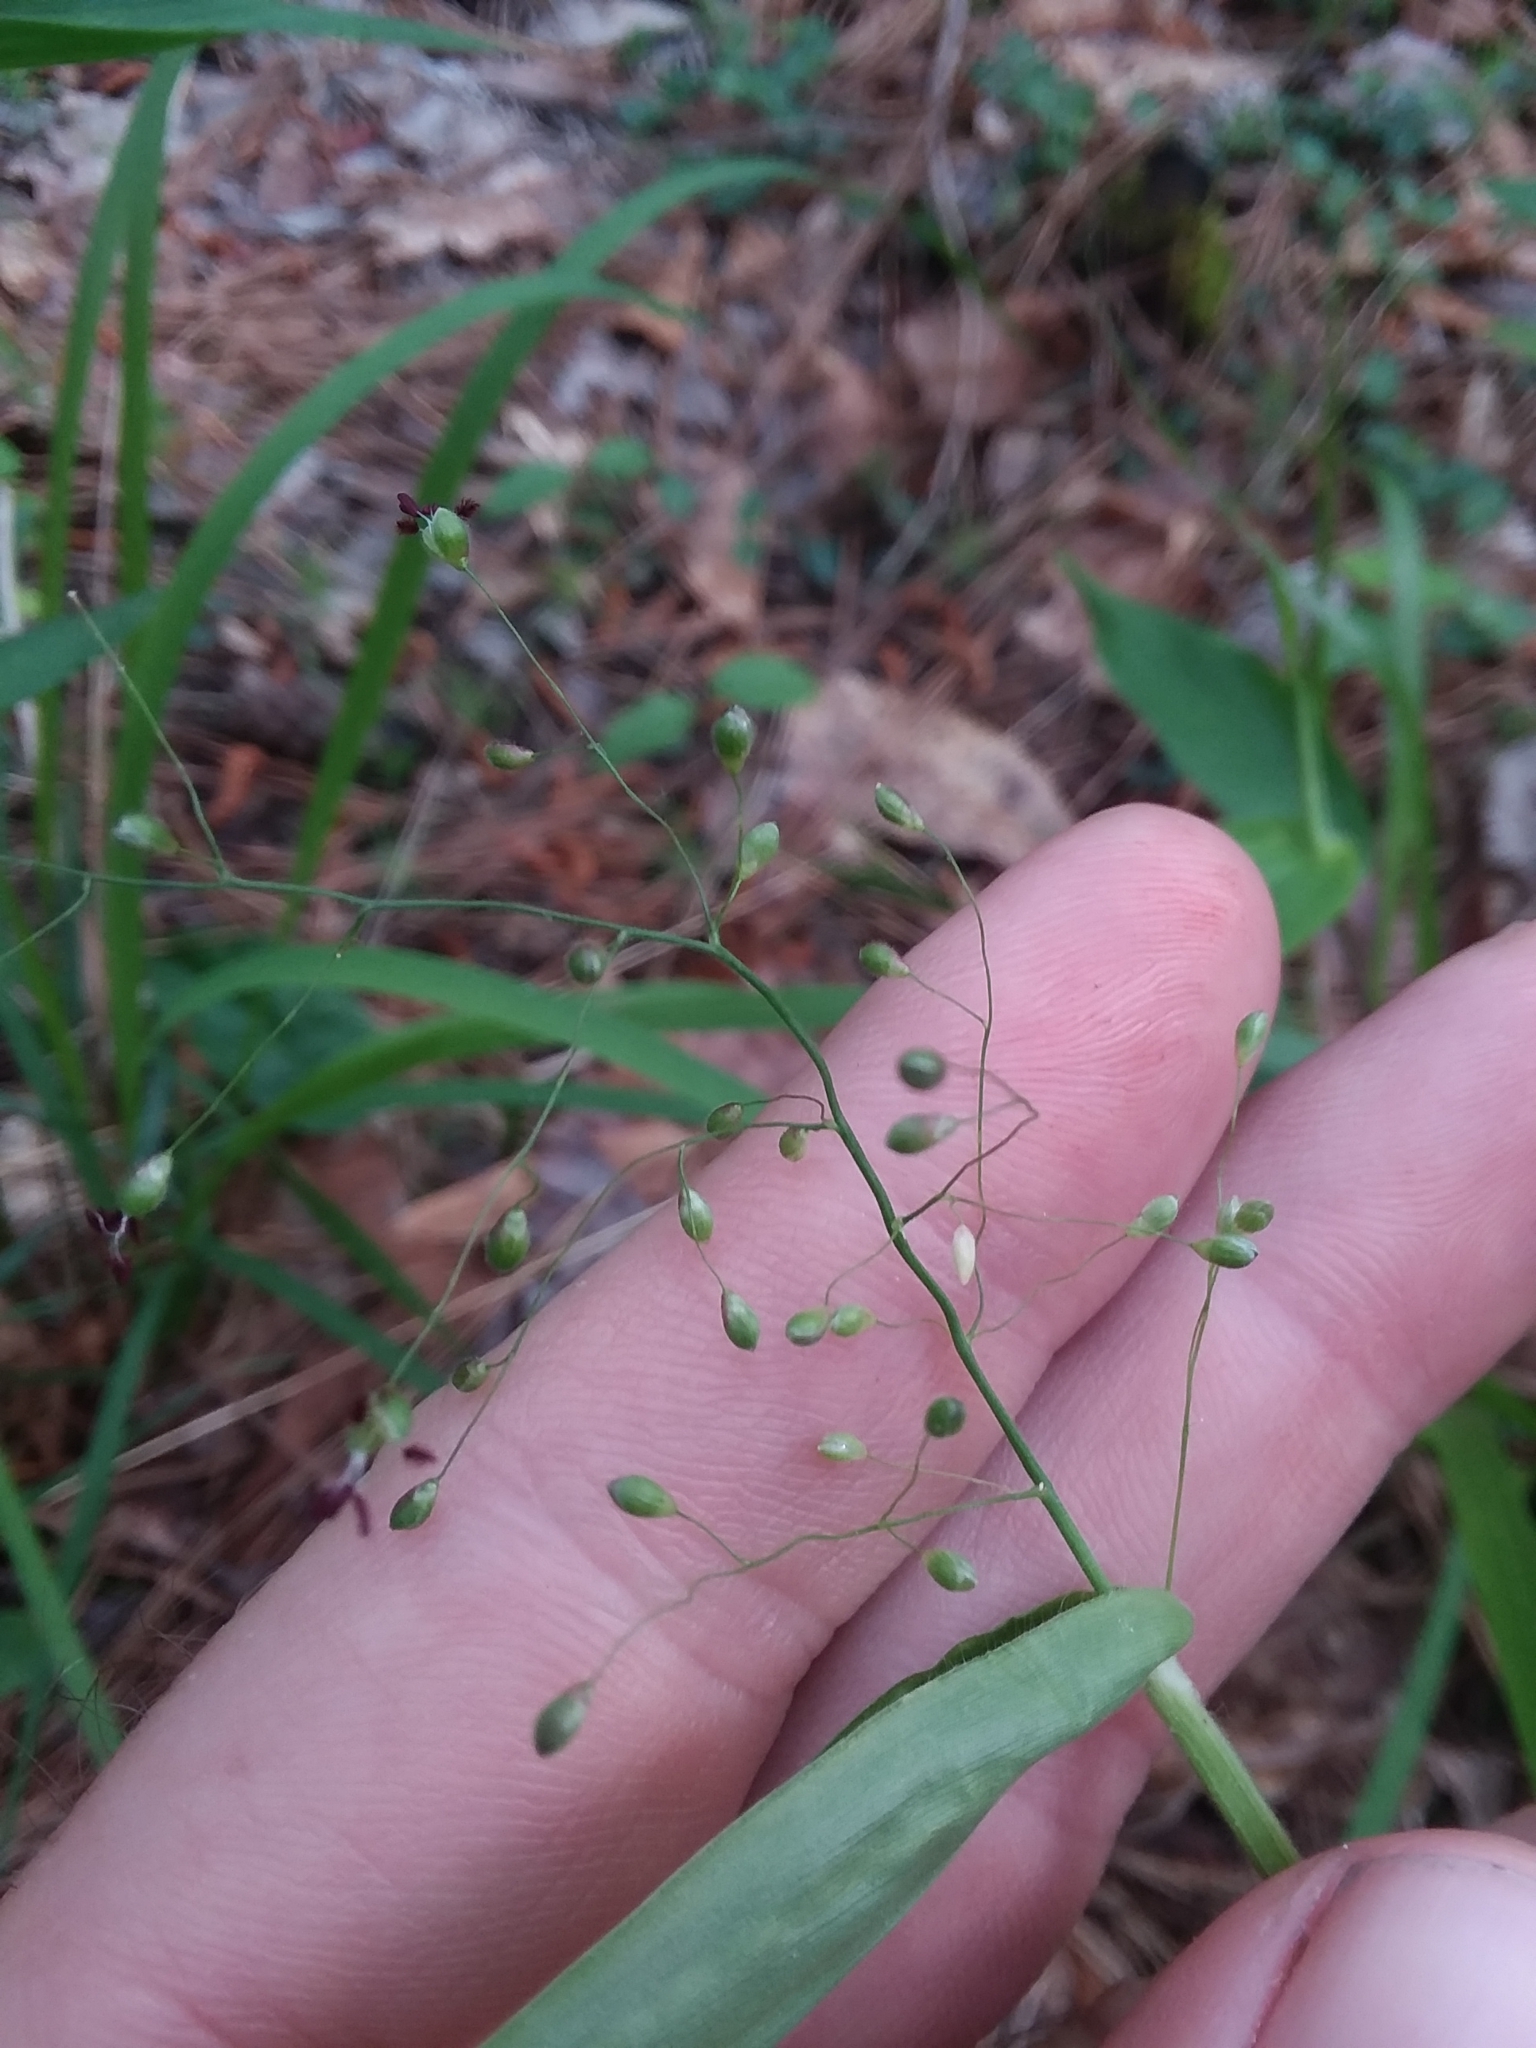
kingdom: Plantae
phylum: Tracheophyta
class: Liliopsida
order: Poales
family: Poaceae
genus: Dichanthelium
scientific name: Dichanthelium commutatum
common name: Variable witchgrass
